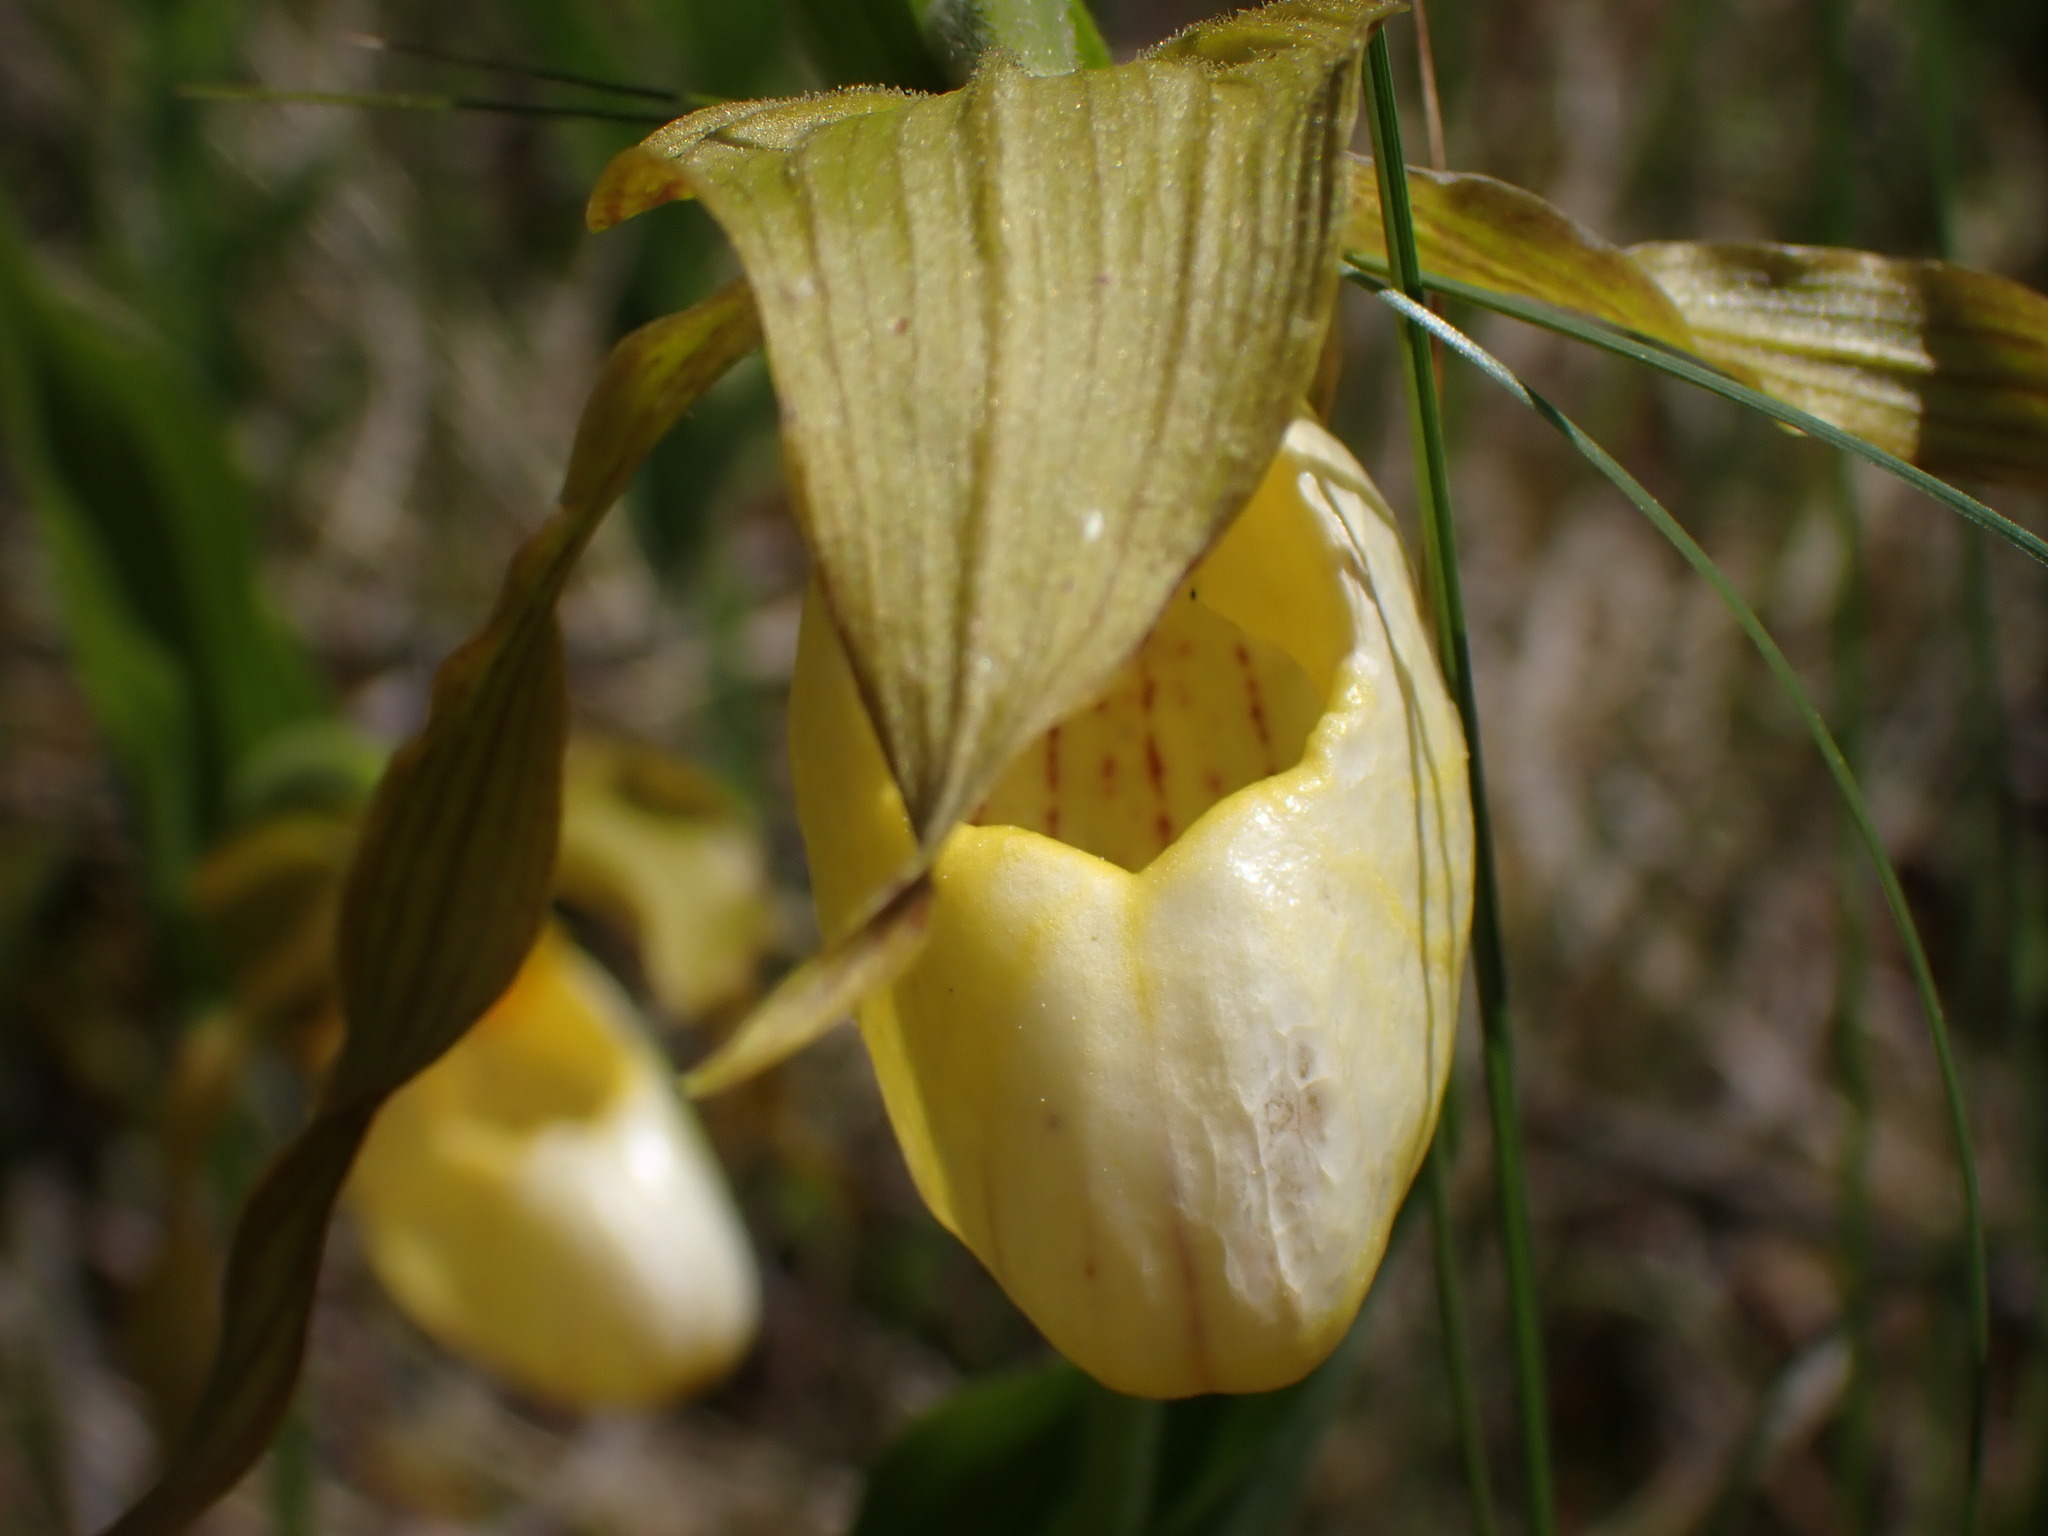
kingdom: Plantae
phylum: Tracheophyta
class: Liliopsida
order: Asparagales
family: Orchidaceae
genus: Cypripedium
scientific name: Cypripedium parviflorum
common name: American yellow lady's-slipper
